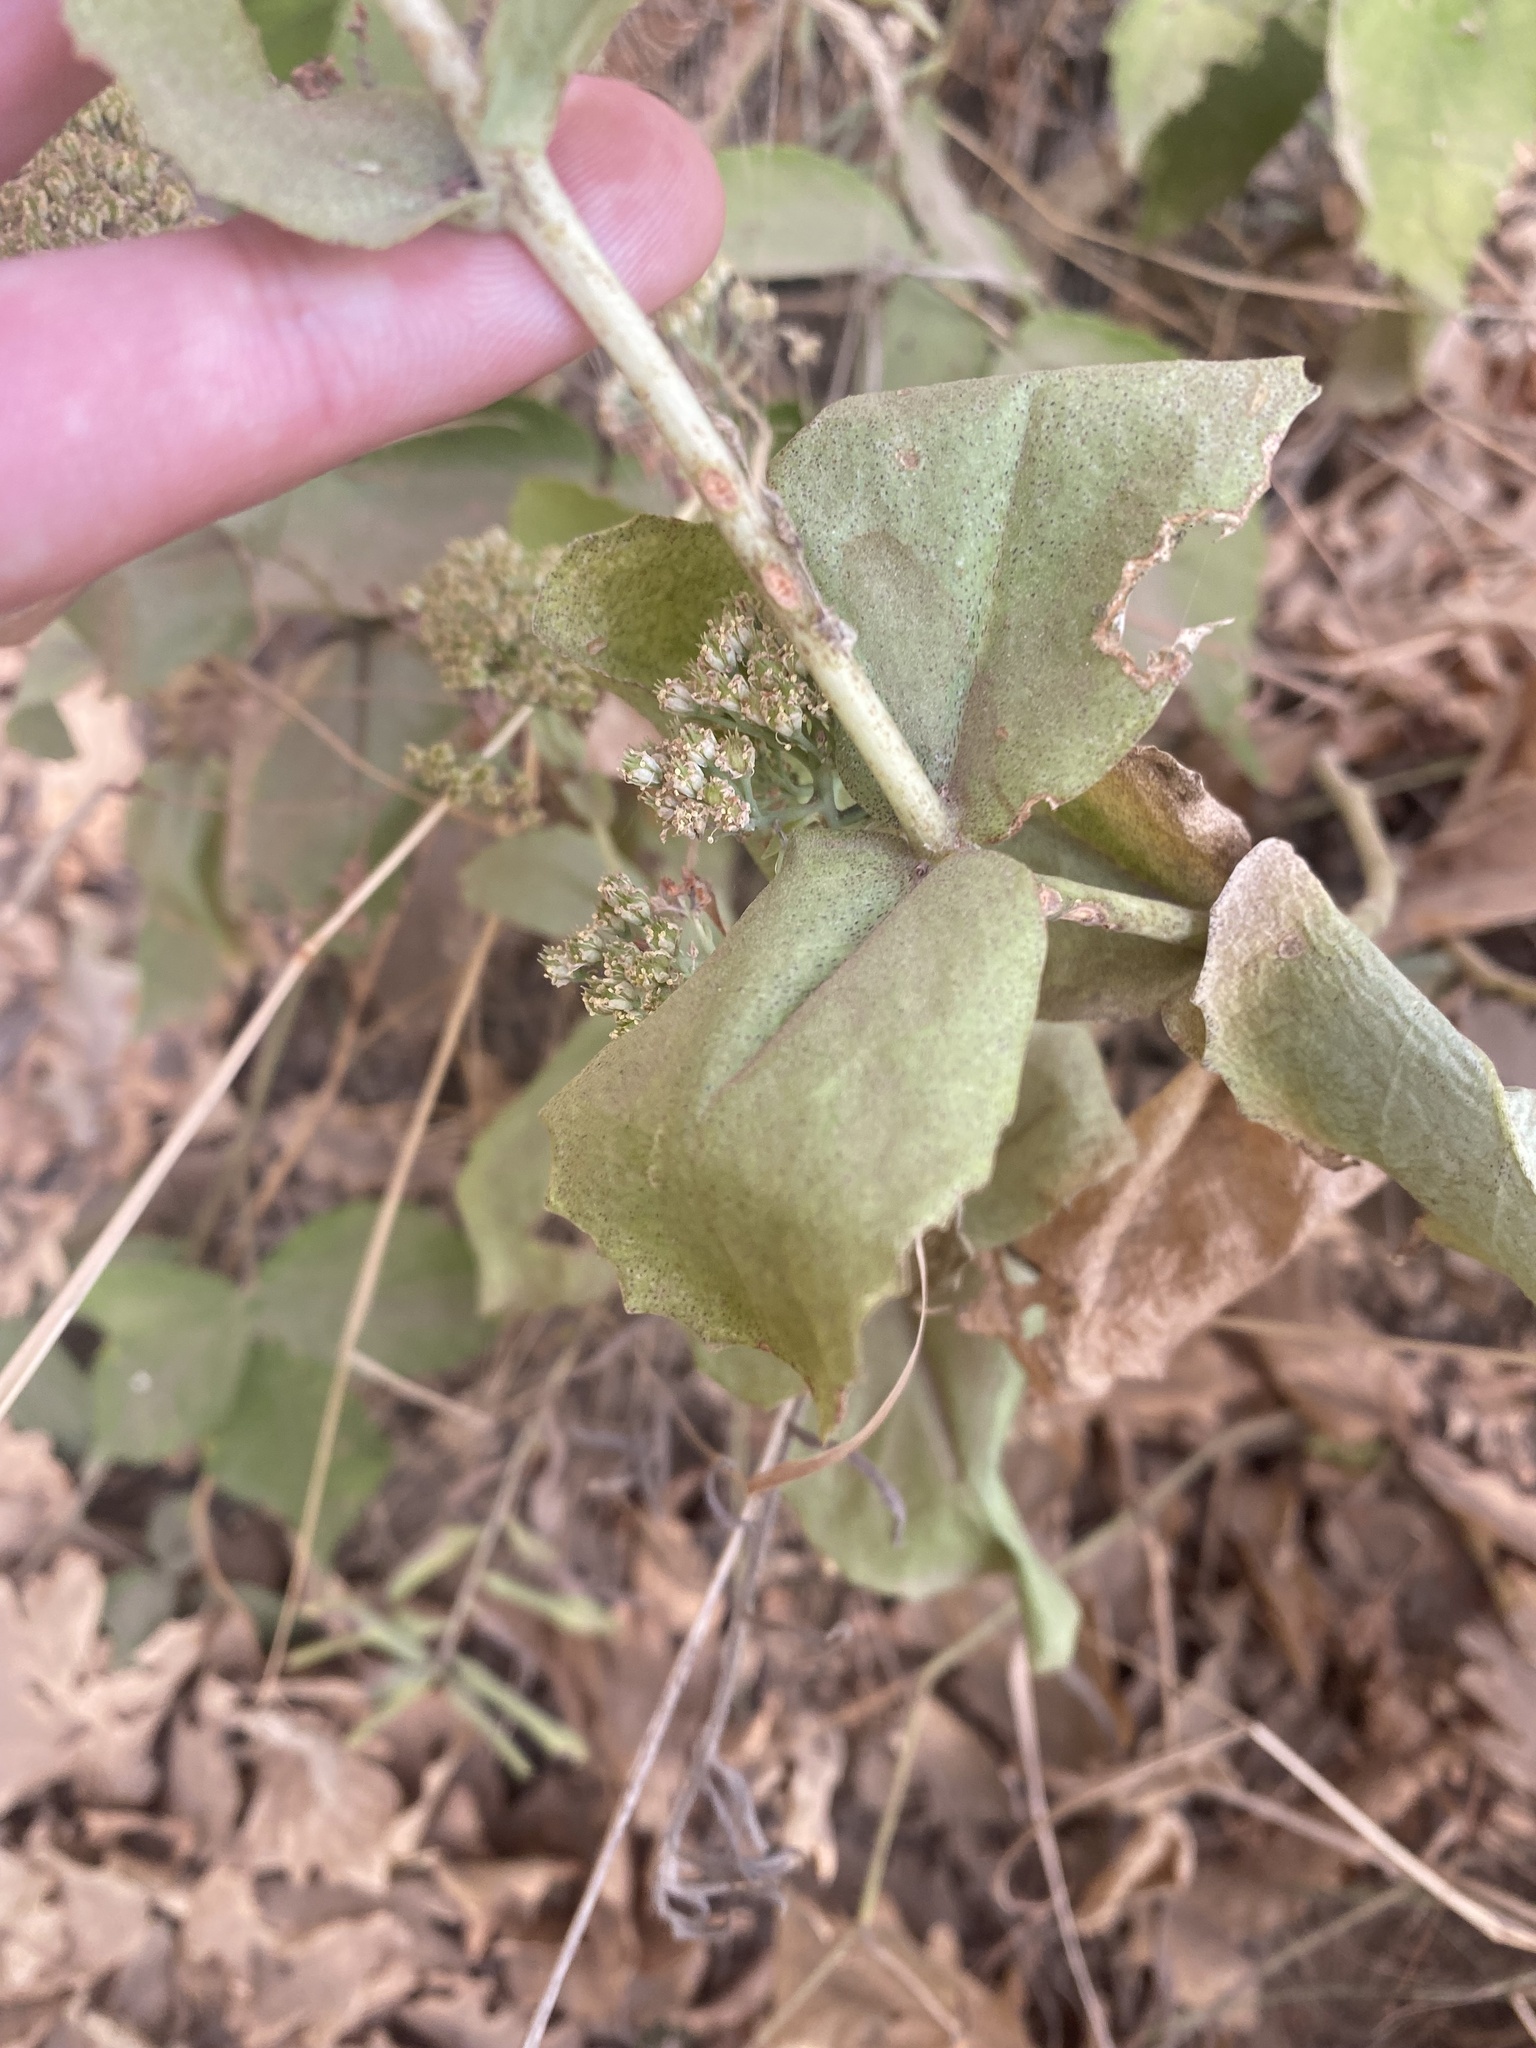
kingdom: Plantae
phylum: Tracheophyta
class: Magnoliopsida
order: Saxifragales
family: Crassulaceae
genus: Hylotelephium
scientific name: Hylotelephium maximum
